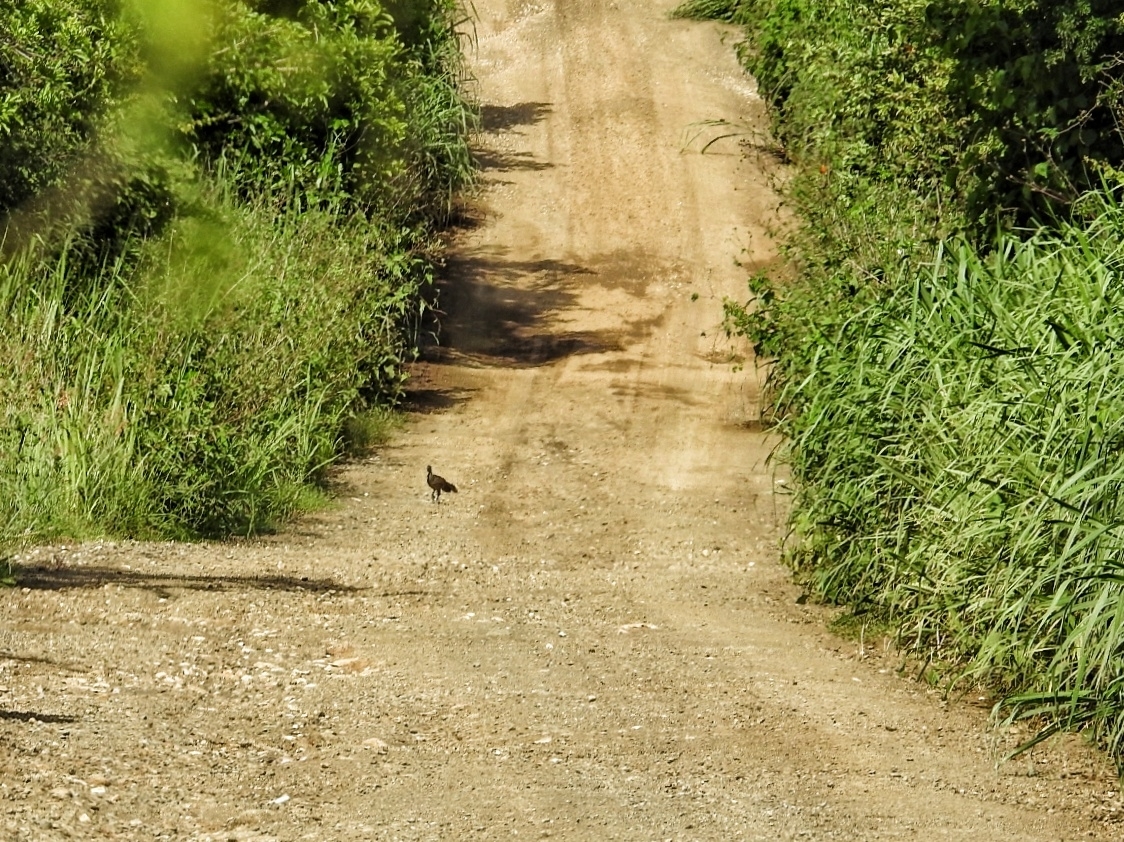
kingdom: Animalia
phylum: Chordata
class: Aves
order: Galliformes
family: Cracidae
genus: Ortalis
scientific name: Ortalis vetula
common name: Plain chachalaca
